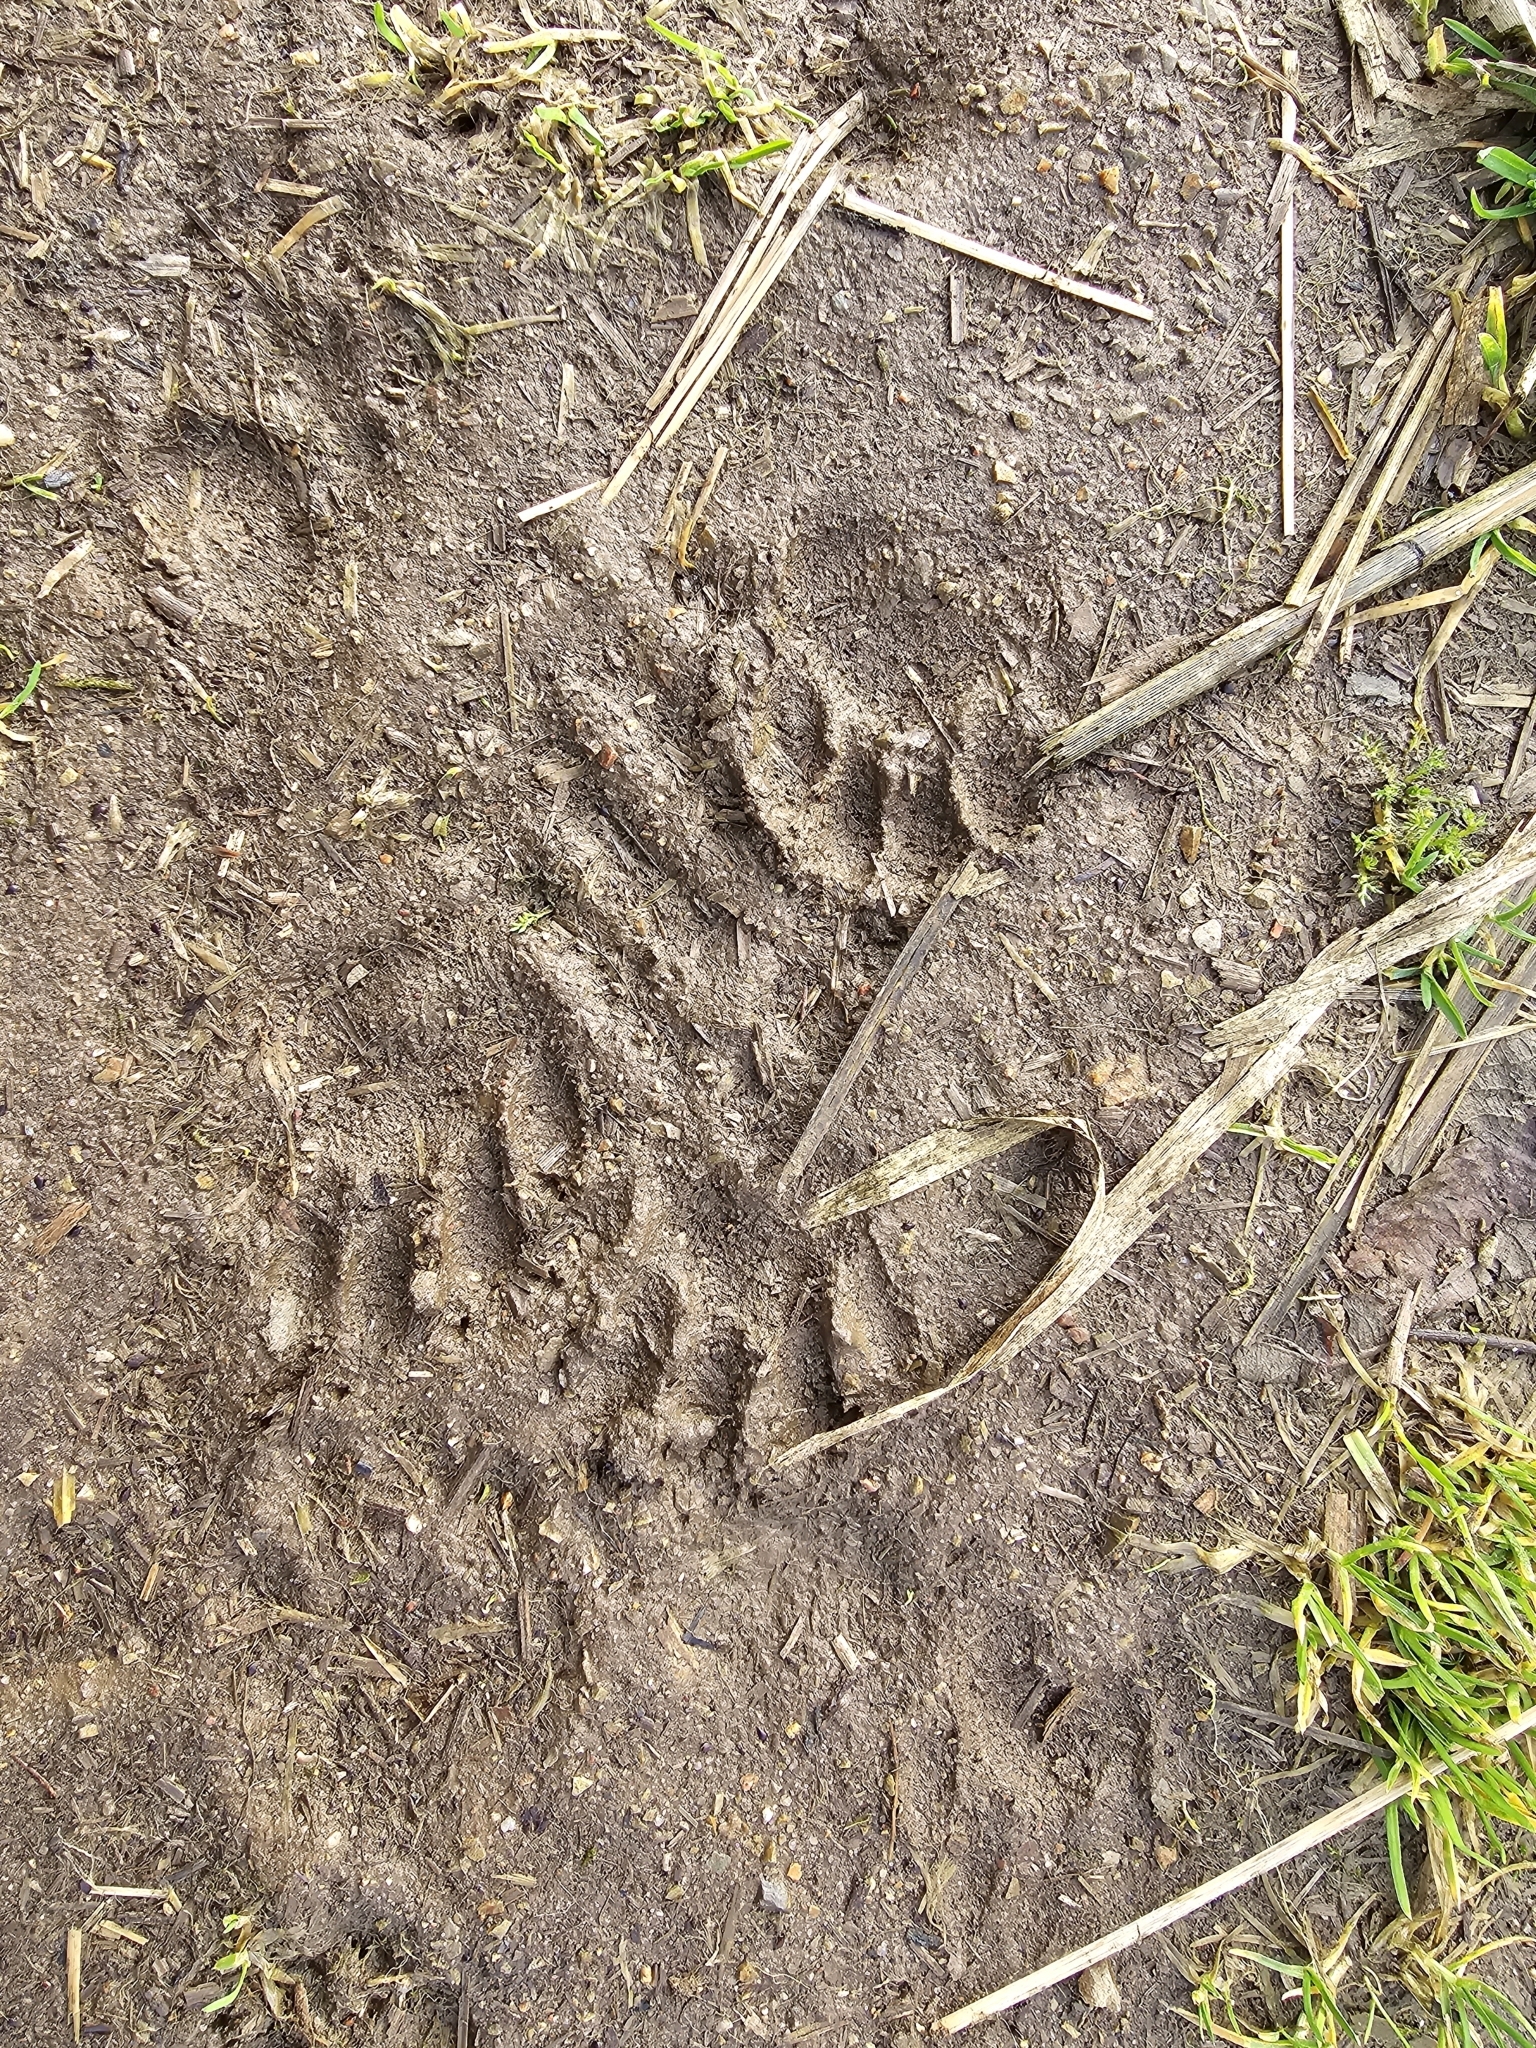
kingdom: Animalia
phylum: Chordata
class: Mammalia
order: Carnivora
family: Felidae
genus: Felis
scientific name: Felis catus
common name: Domestic cat
